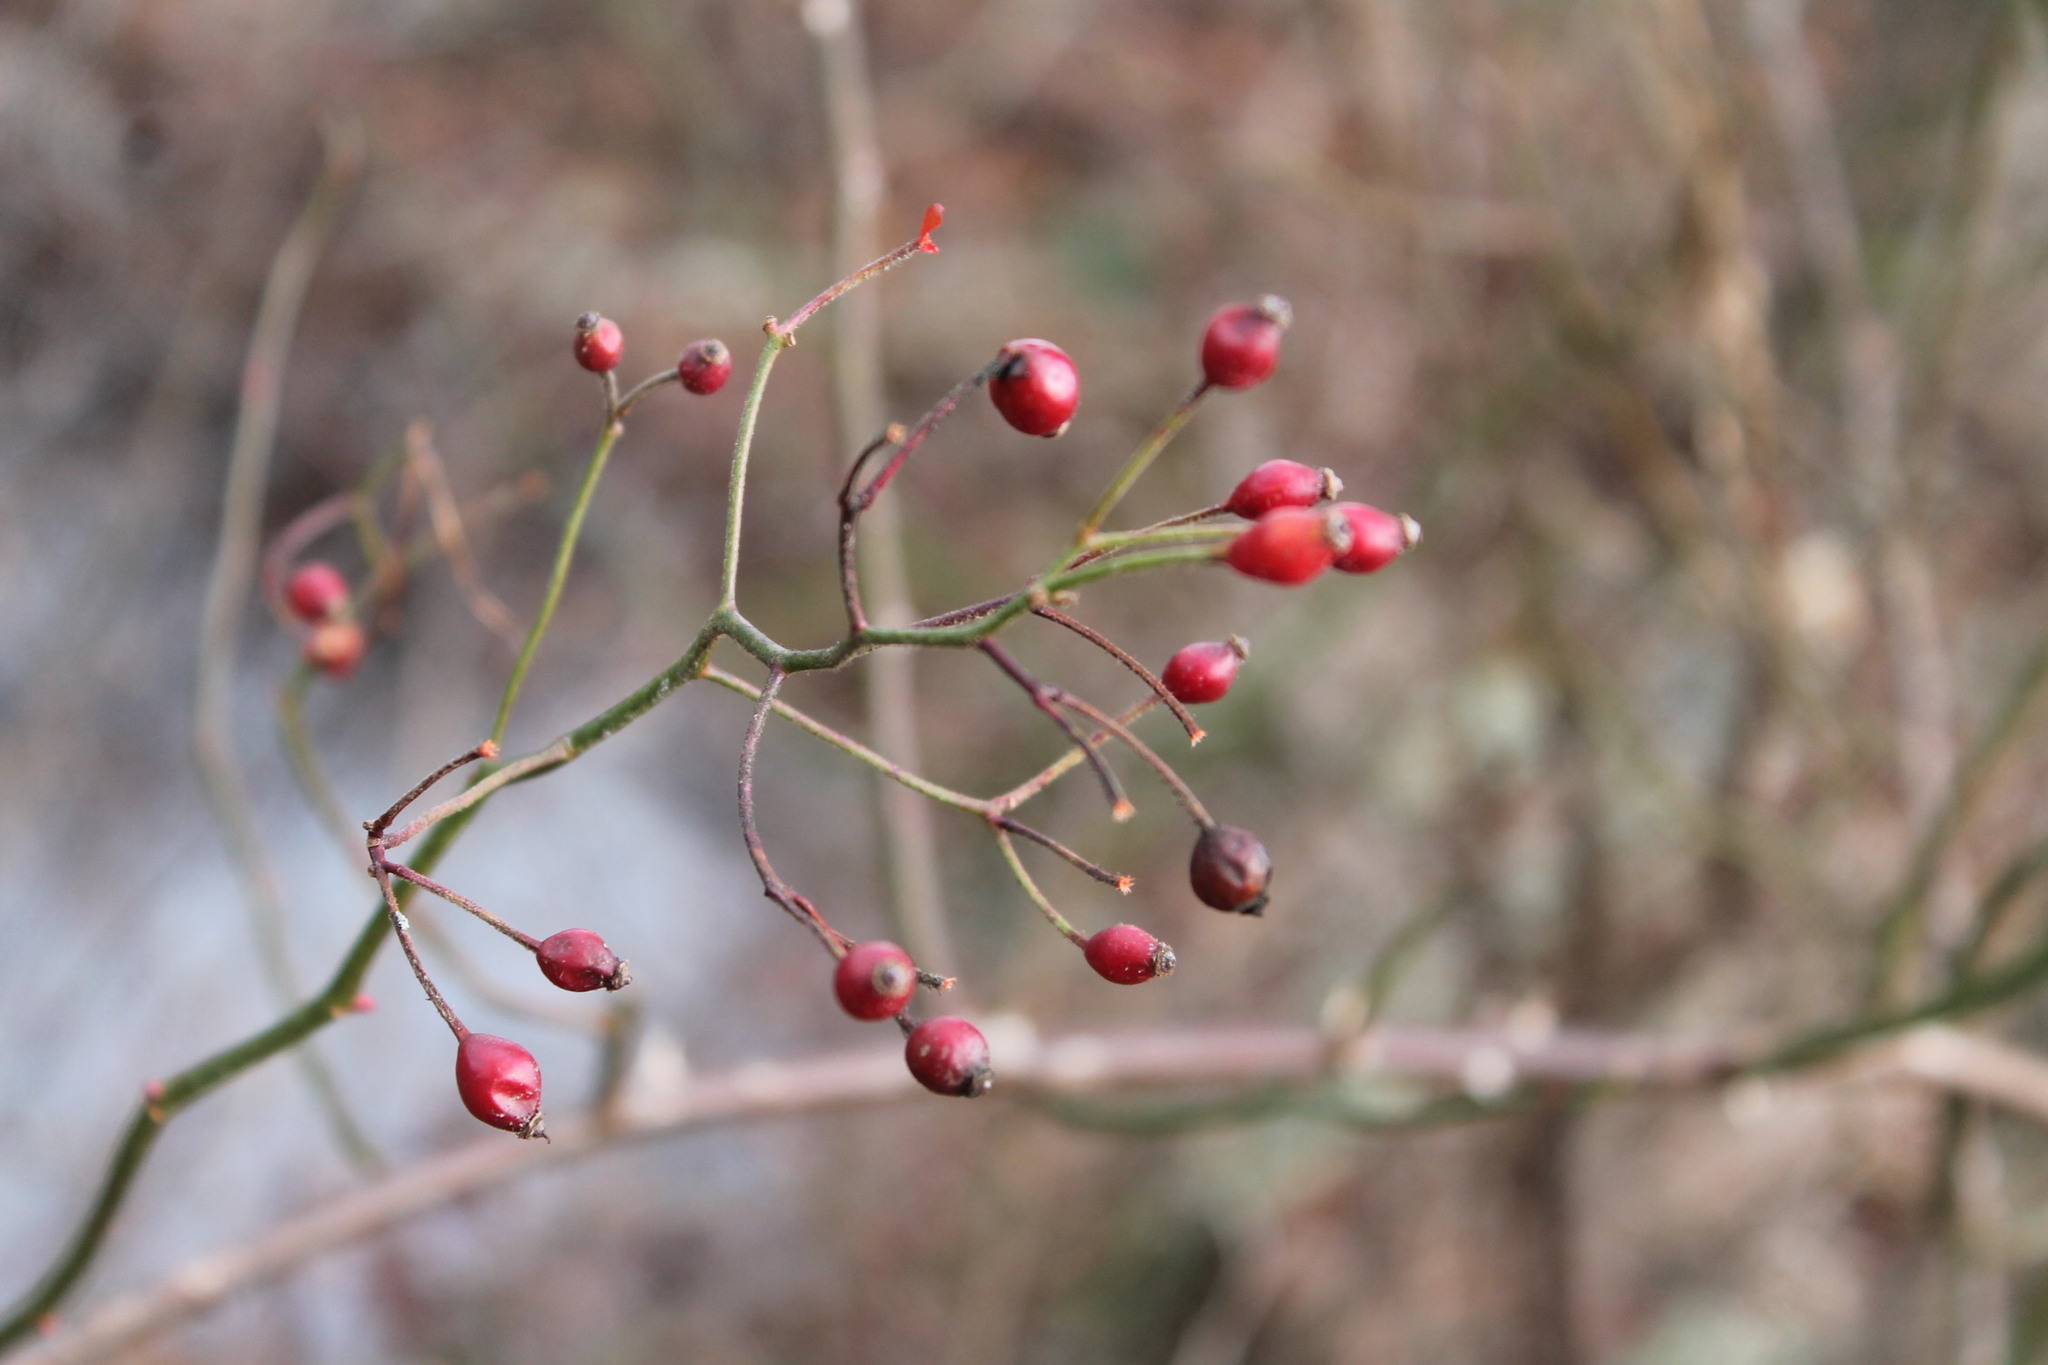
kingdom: Plantae
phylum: Tracheophyta
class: Magnoliopsida
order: Rosales
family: Rosaceae
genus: Rosa
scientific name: Rosa multiflora
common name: Multiflora rose
